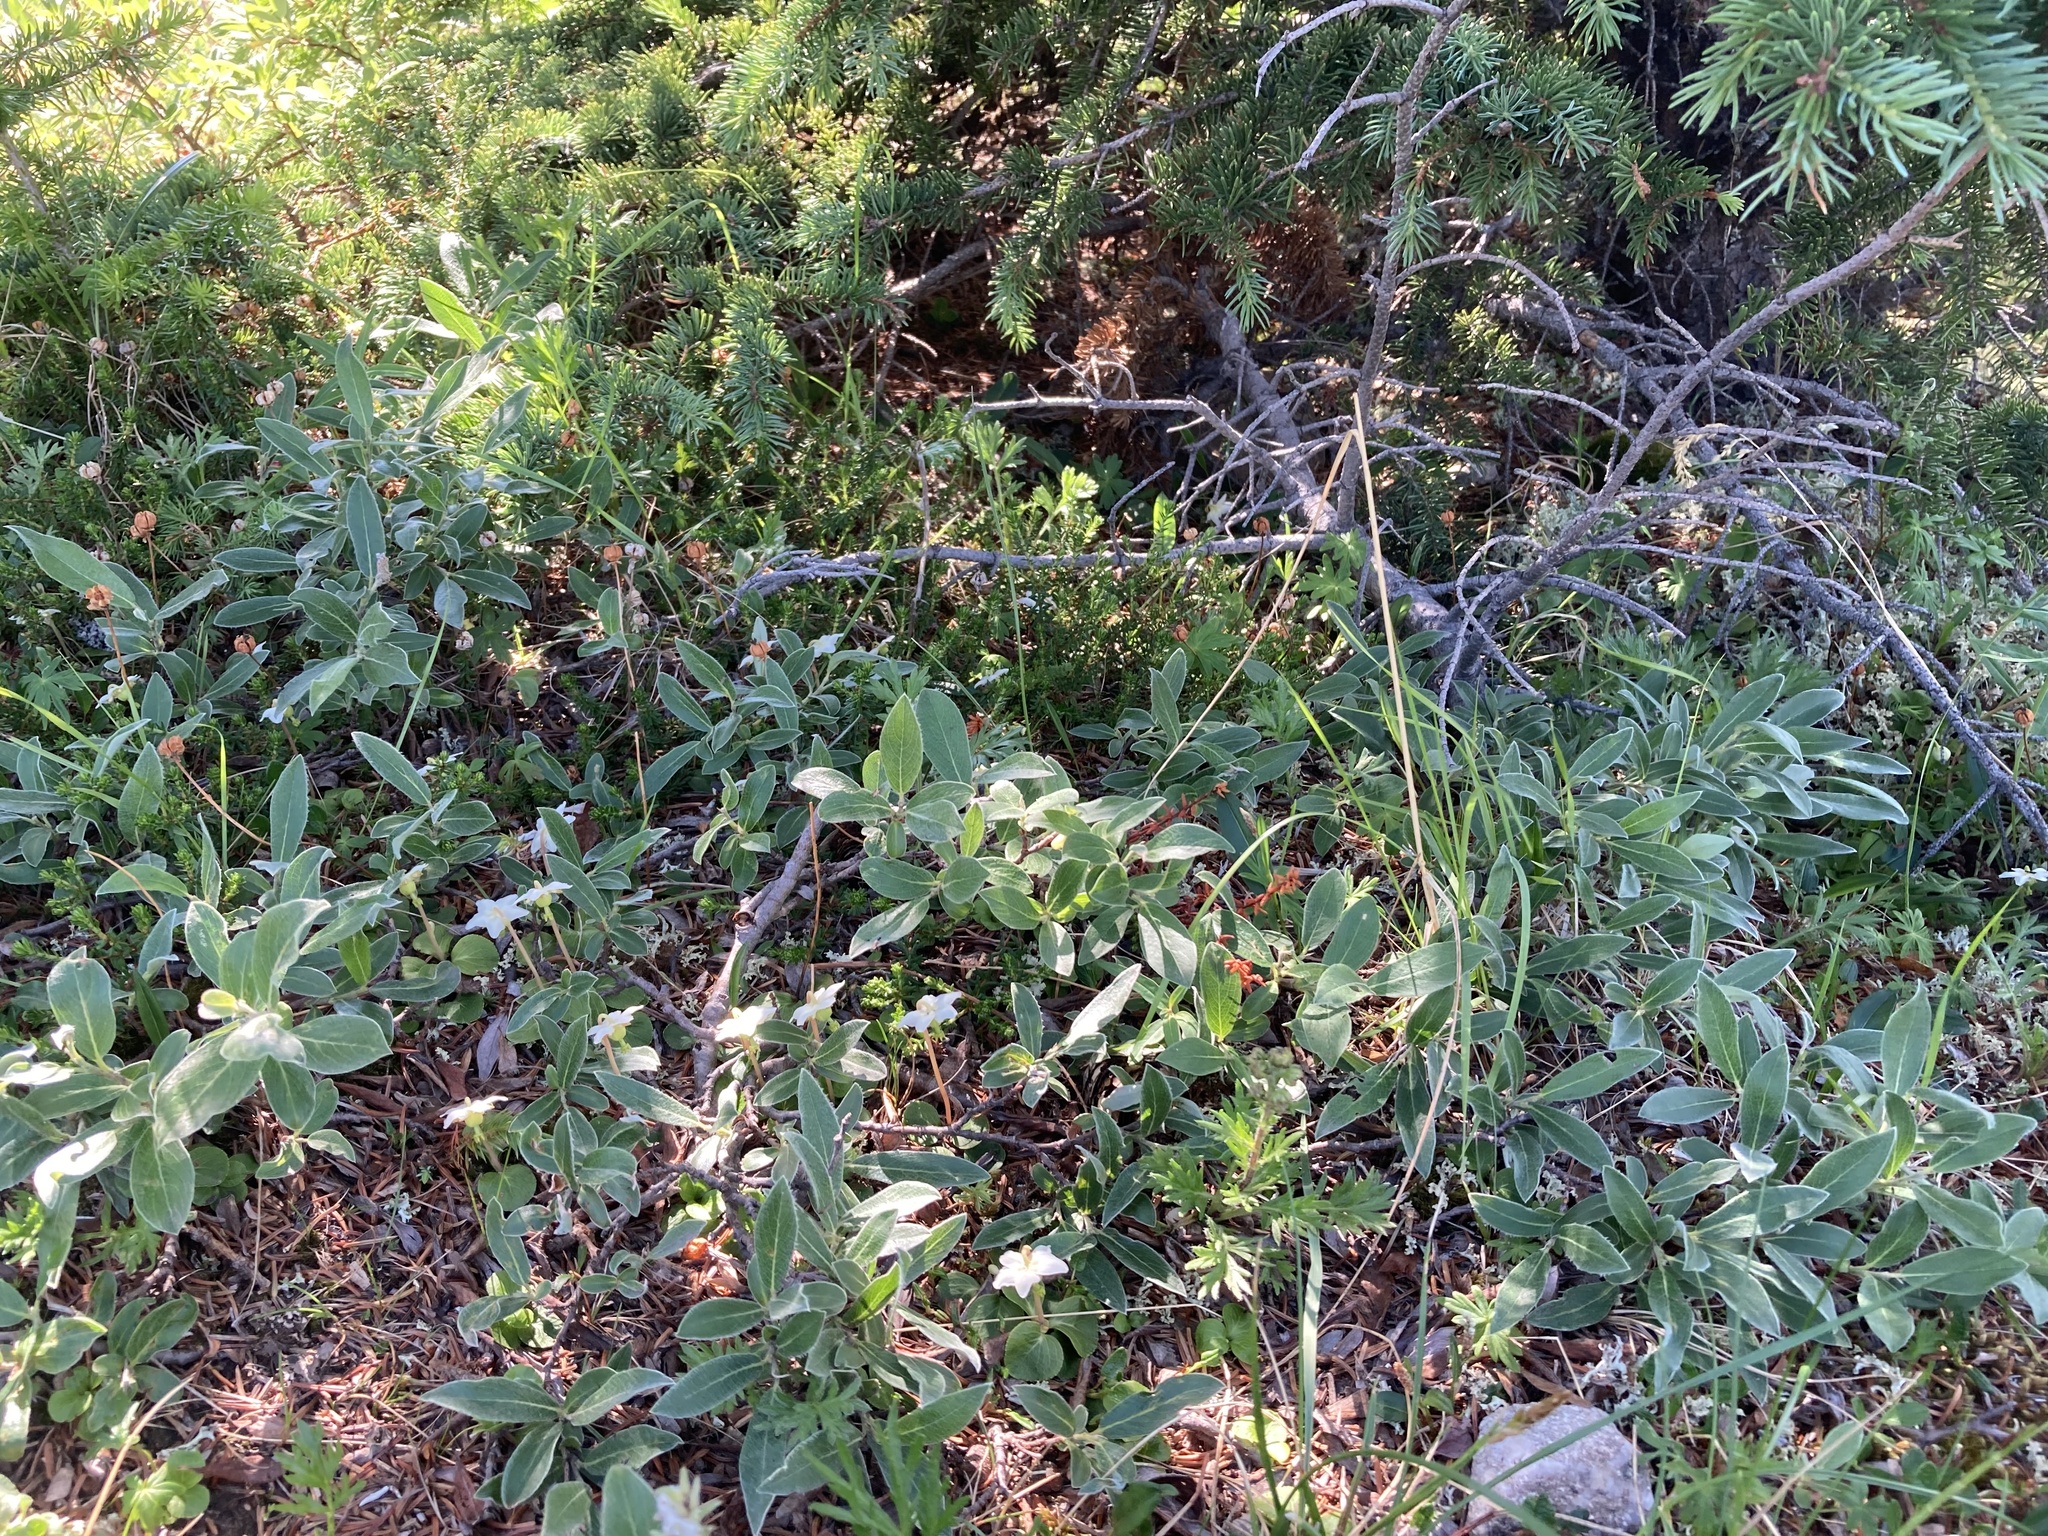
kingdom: Plantae
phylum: Tracheophyta
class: Magnoliopsida
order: Malpighiales
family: Salicaceae
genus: Salix
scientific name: Salix glauca
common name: Glaucous willow
